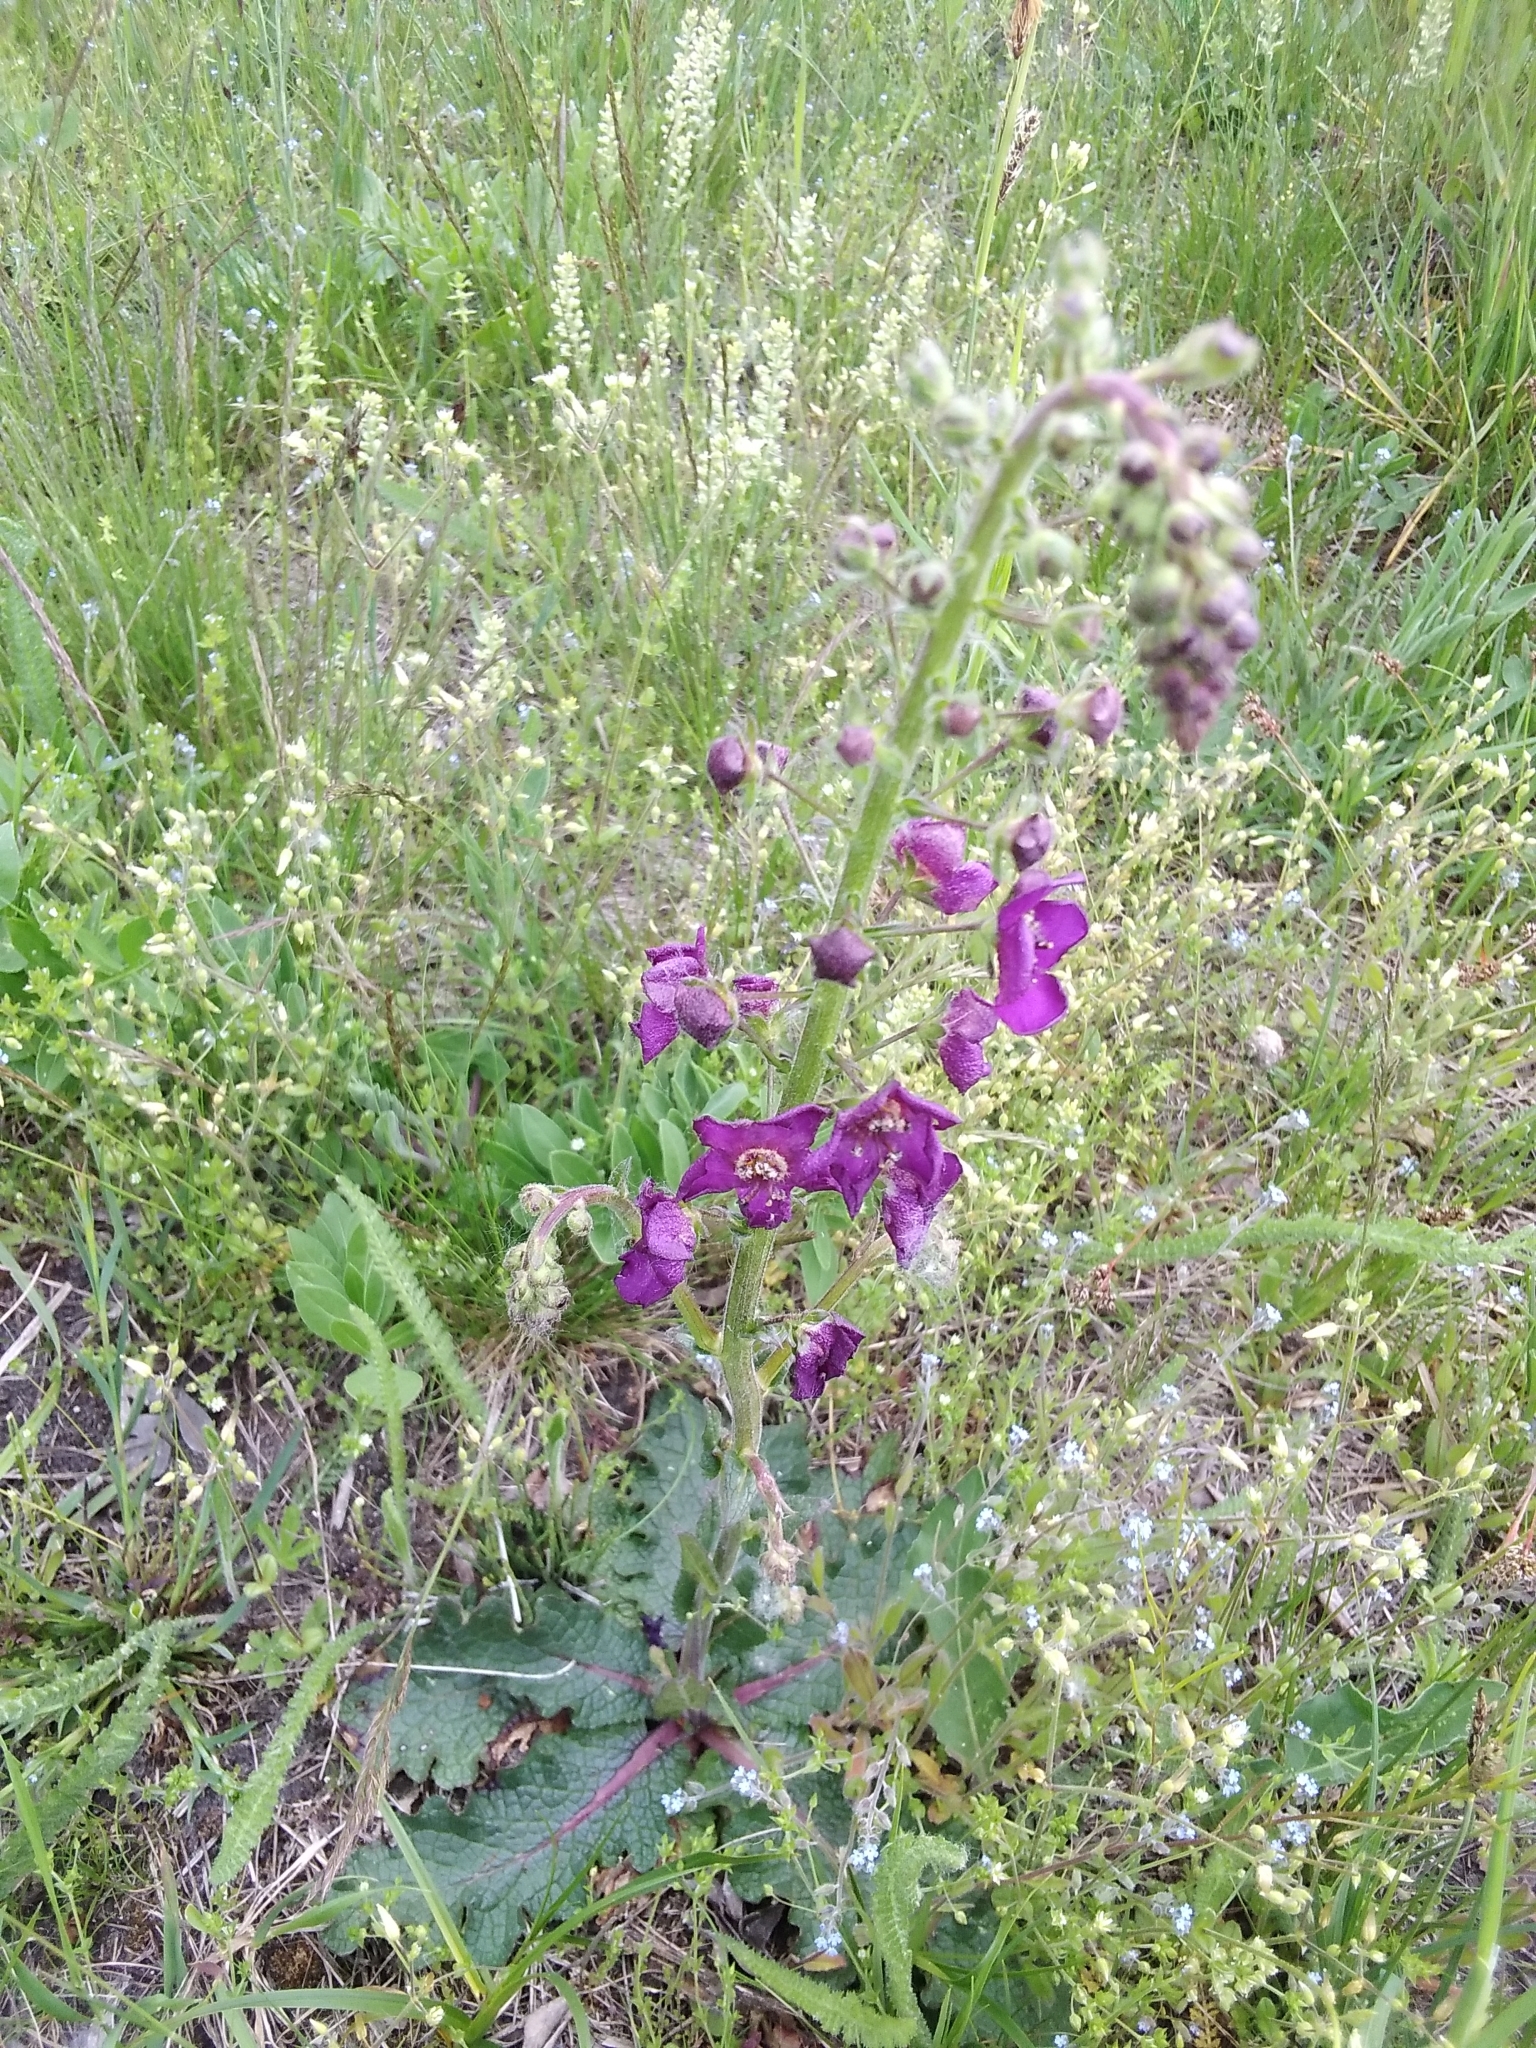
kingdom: Plantae
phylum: Tracheophyta
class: Magnoliopsida
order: Lamiales
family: Scrophulariaceae
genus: Verbascum
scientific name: Verbascum phoeniceum
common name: Purple mullein
